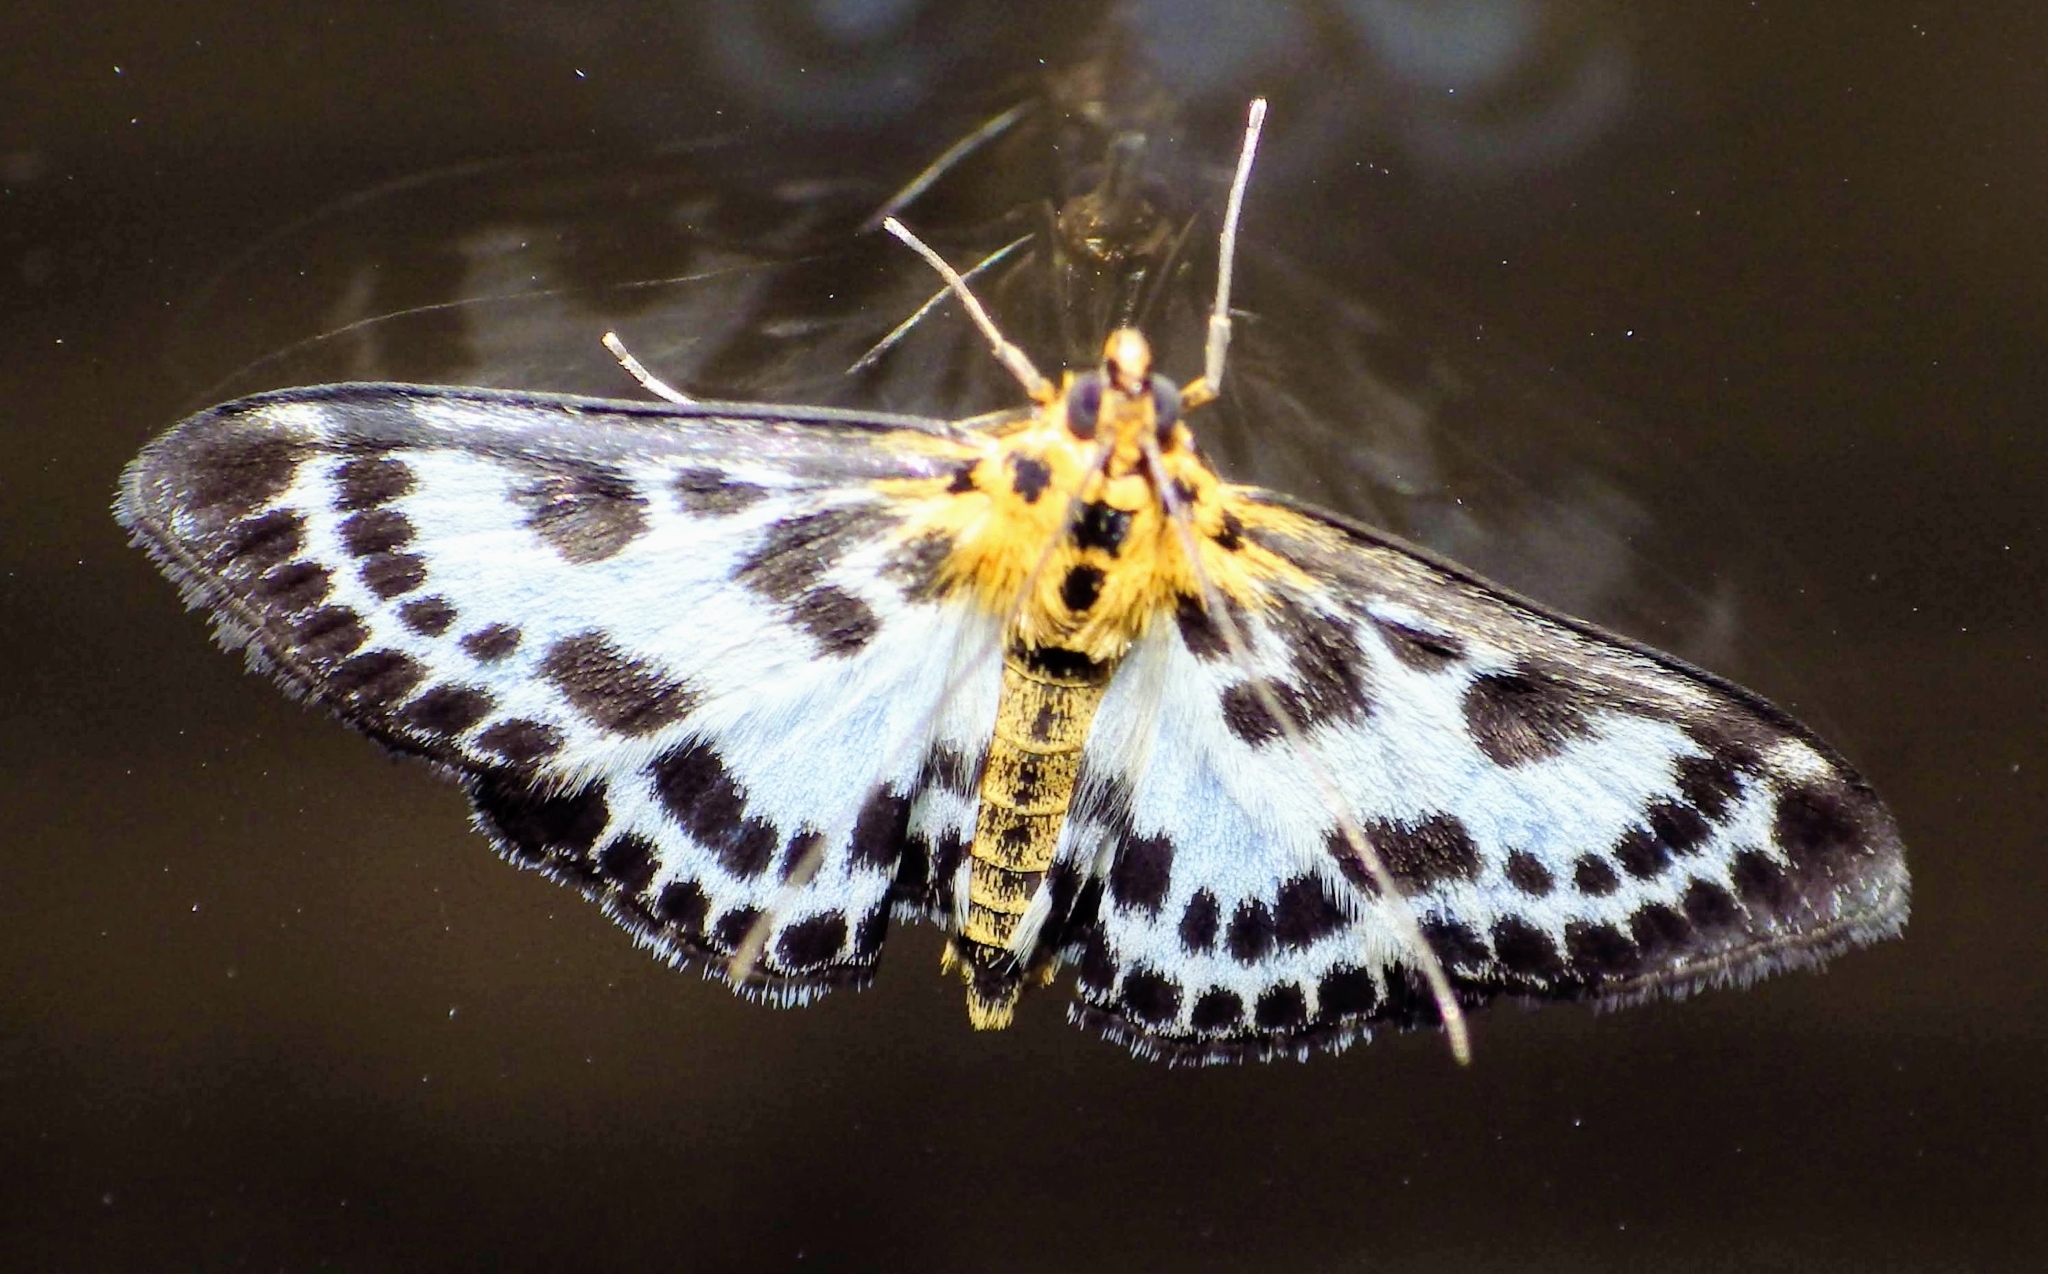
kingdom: Animalia
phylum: Arthropoda
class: Insecta
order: Lepidoptera
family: Crambidae
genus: Anania
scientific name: Anania hortulata
